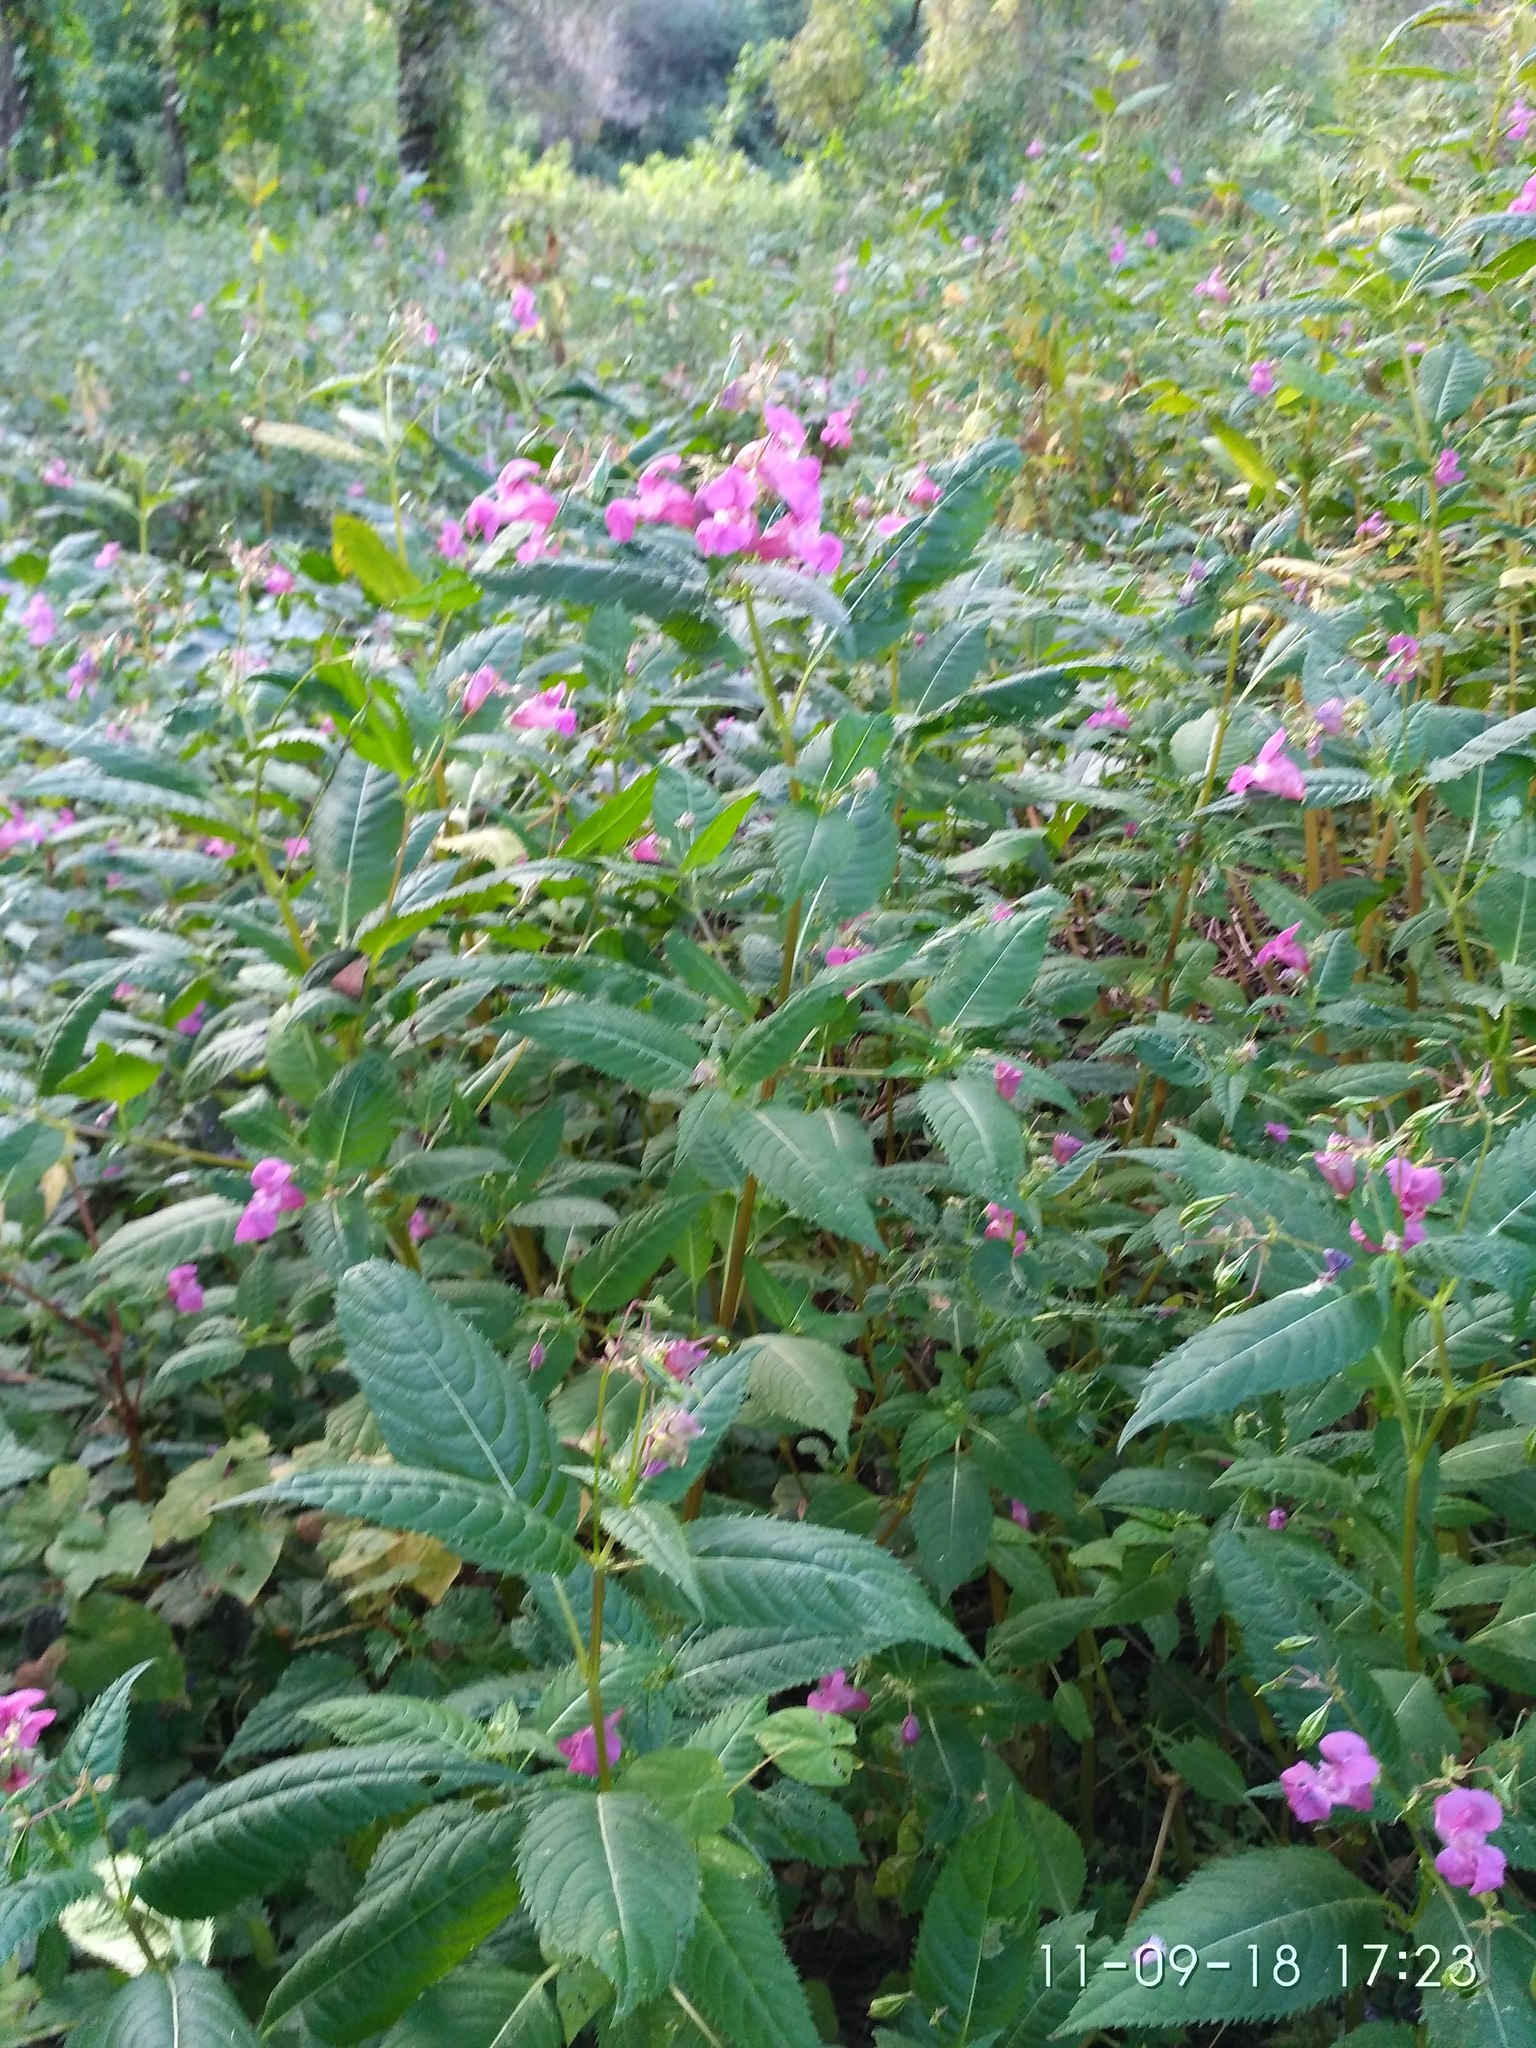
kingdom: Plantae
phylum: Tracheophyta
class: Magnoliopsida
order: Ericales
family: Balsaminaceae
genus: Impatiens
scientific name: Impatiens glandulifera
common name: Himalayan balsam
